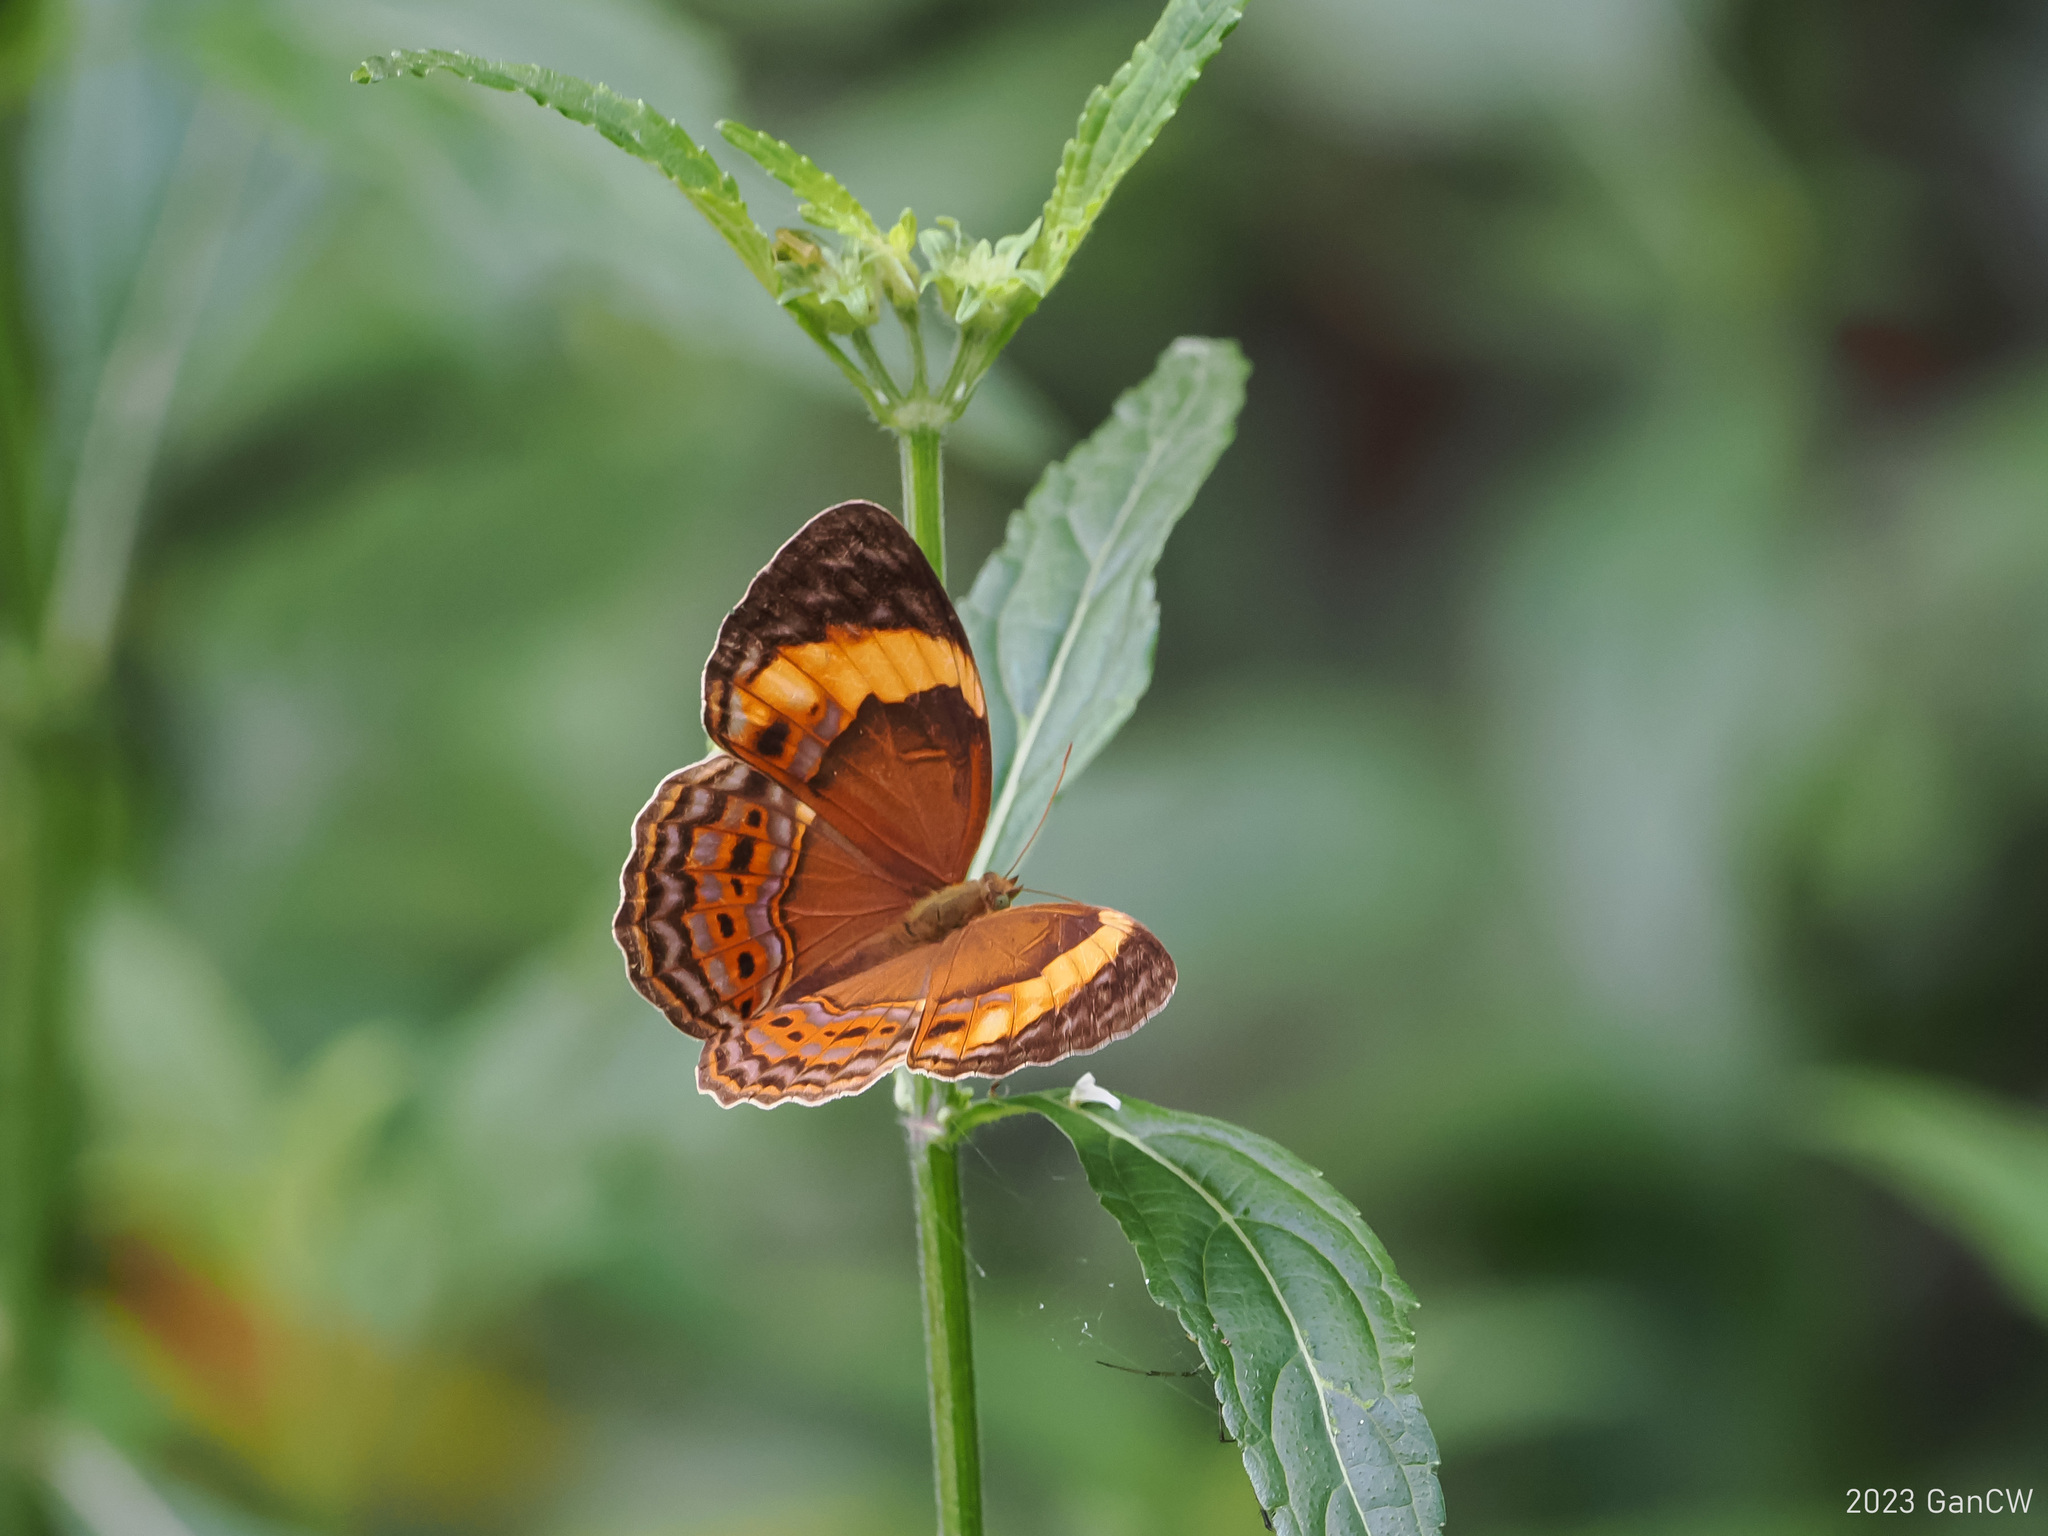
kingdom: Animalia
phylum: Arthropoda
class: Insecta
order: Lepidoptera
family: Nymphalidae
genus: Cupha
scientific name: Cupha maeonides
